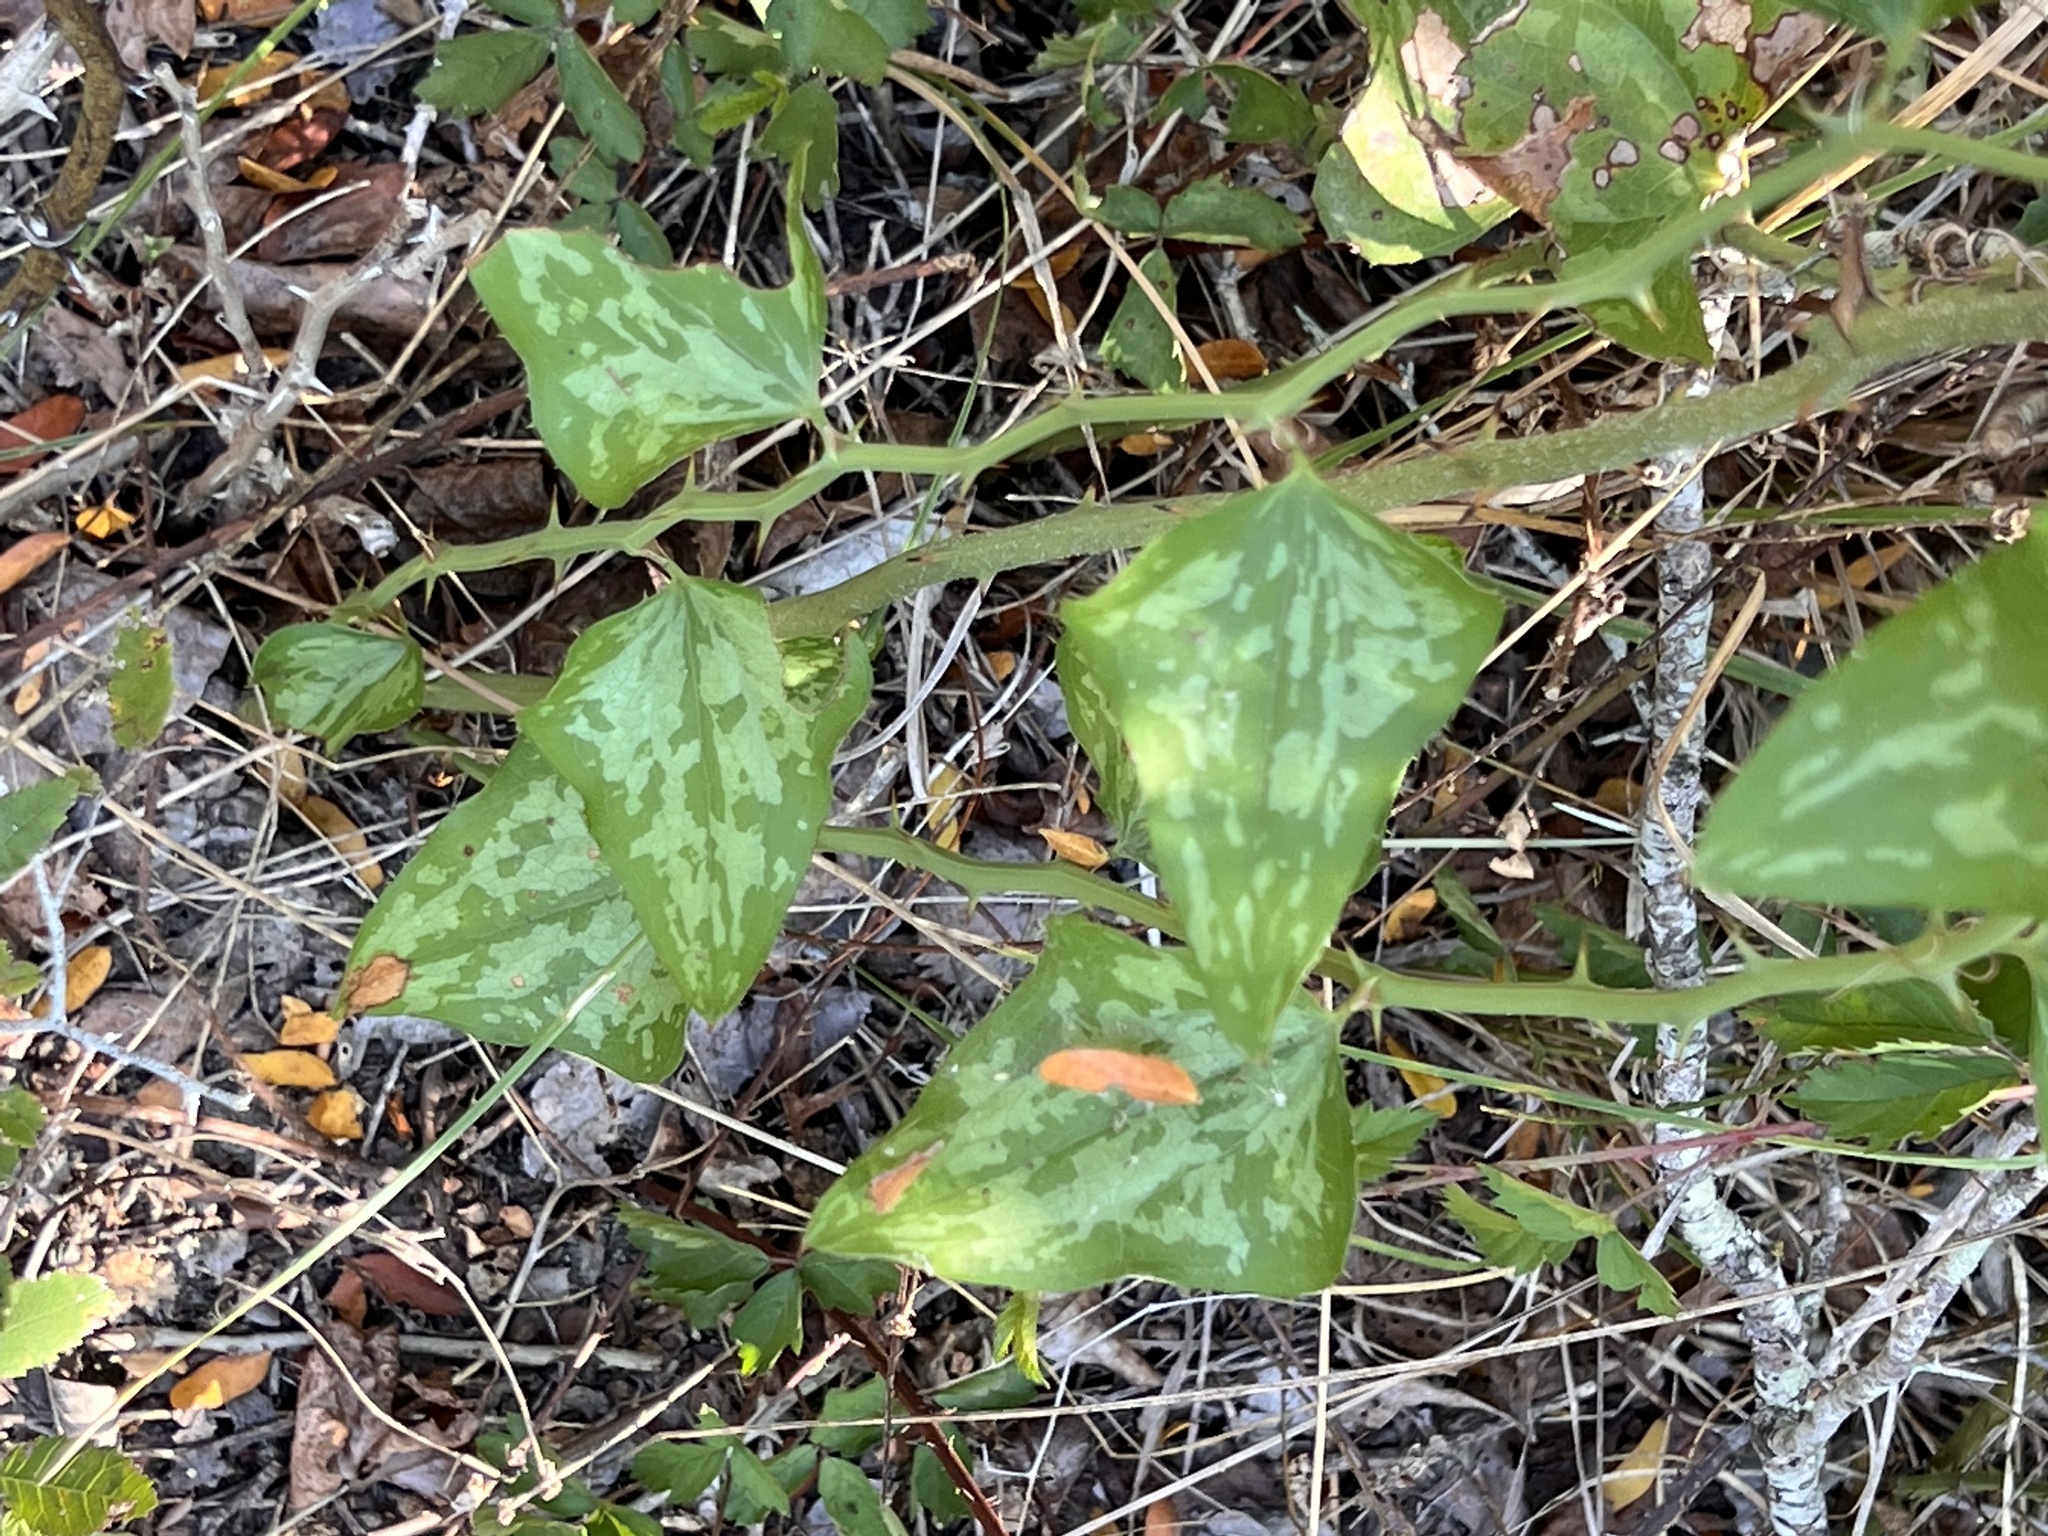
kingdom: Plantae
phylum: Tracheophyta
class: Liliopsida
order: Liliales
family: Smilacaceae
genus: Smilax
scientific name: Smilax bona-nox
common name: Catbrier
